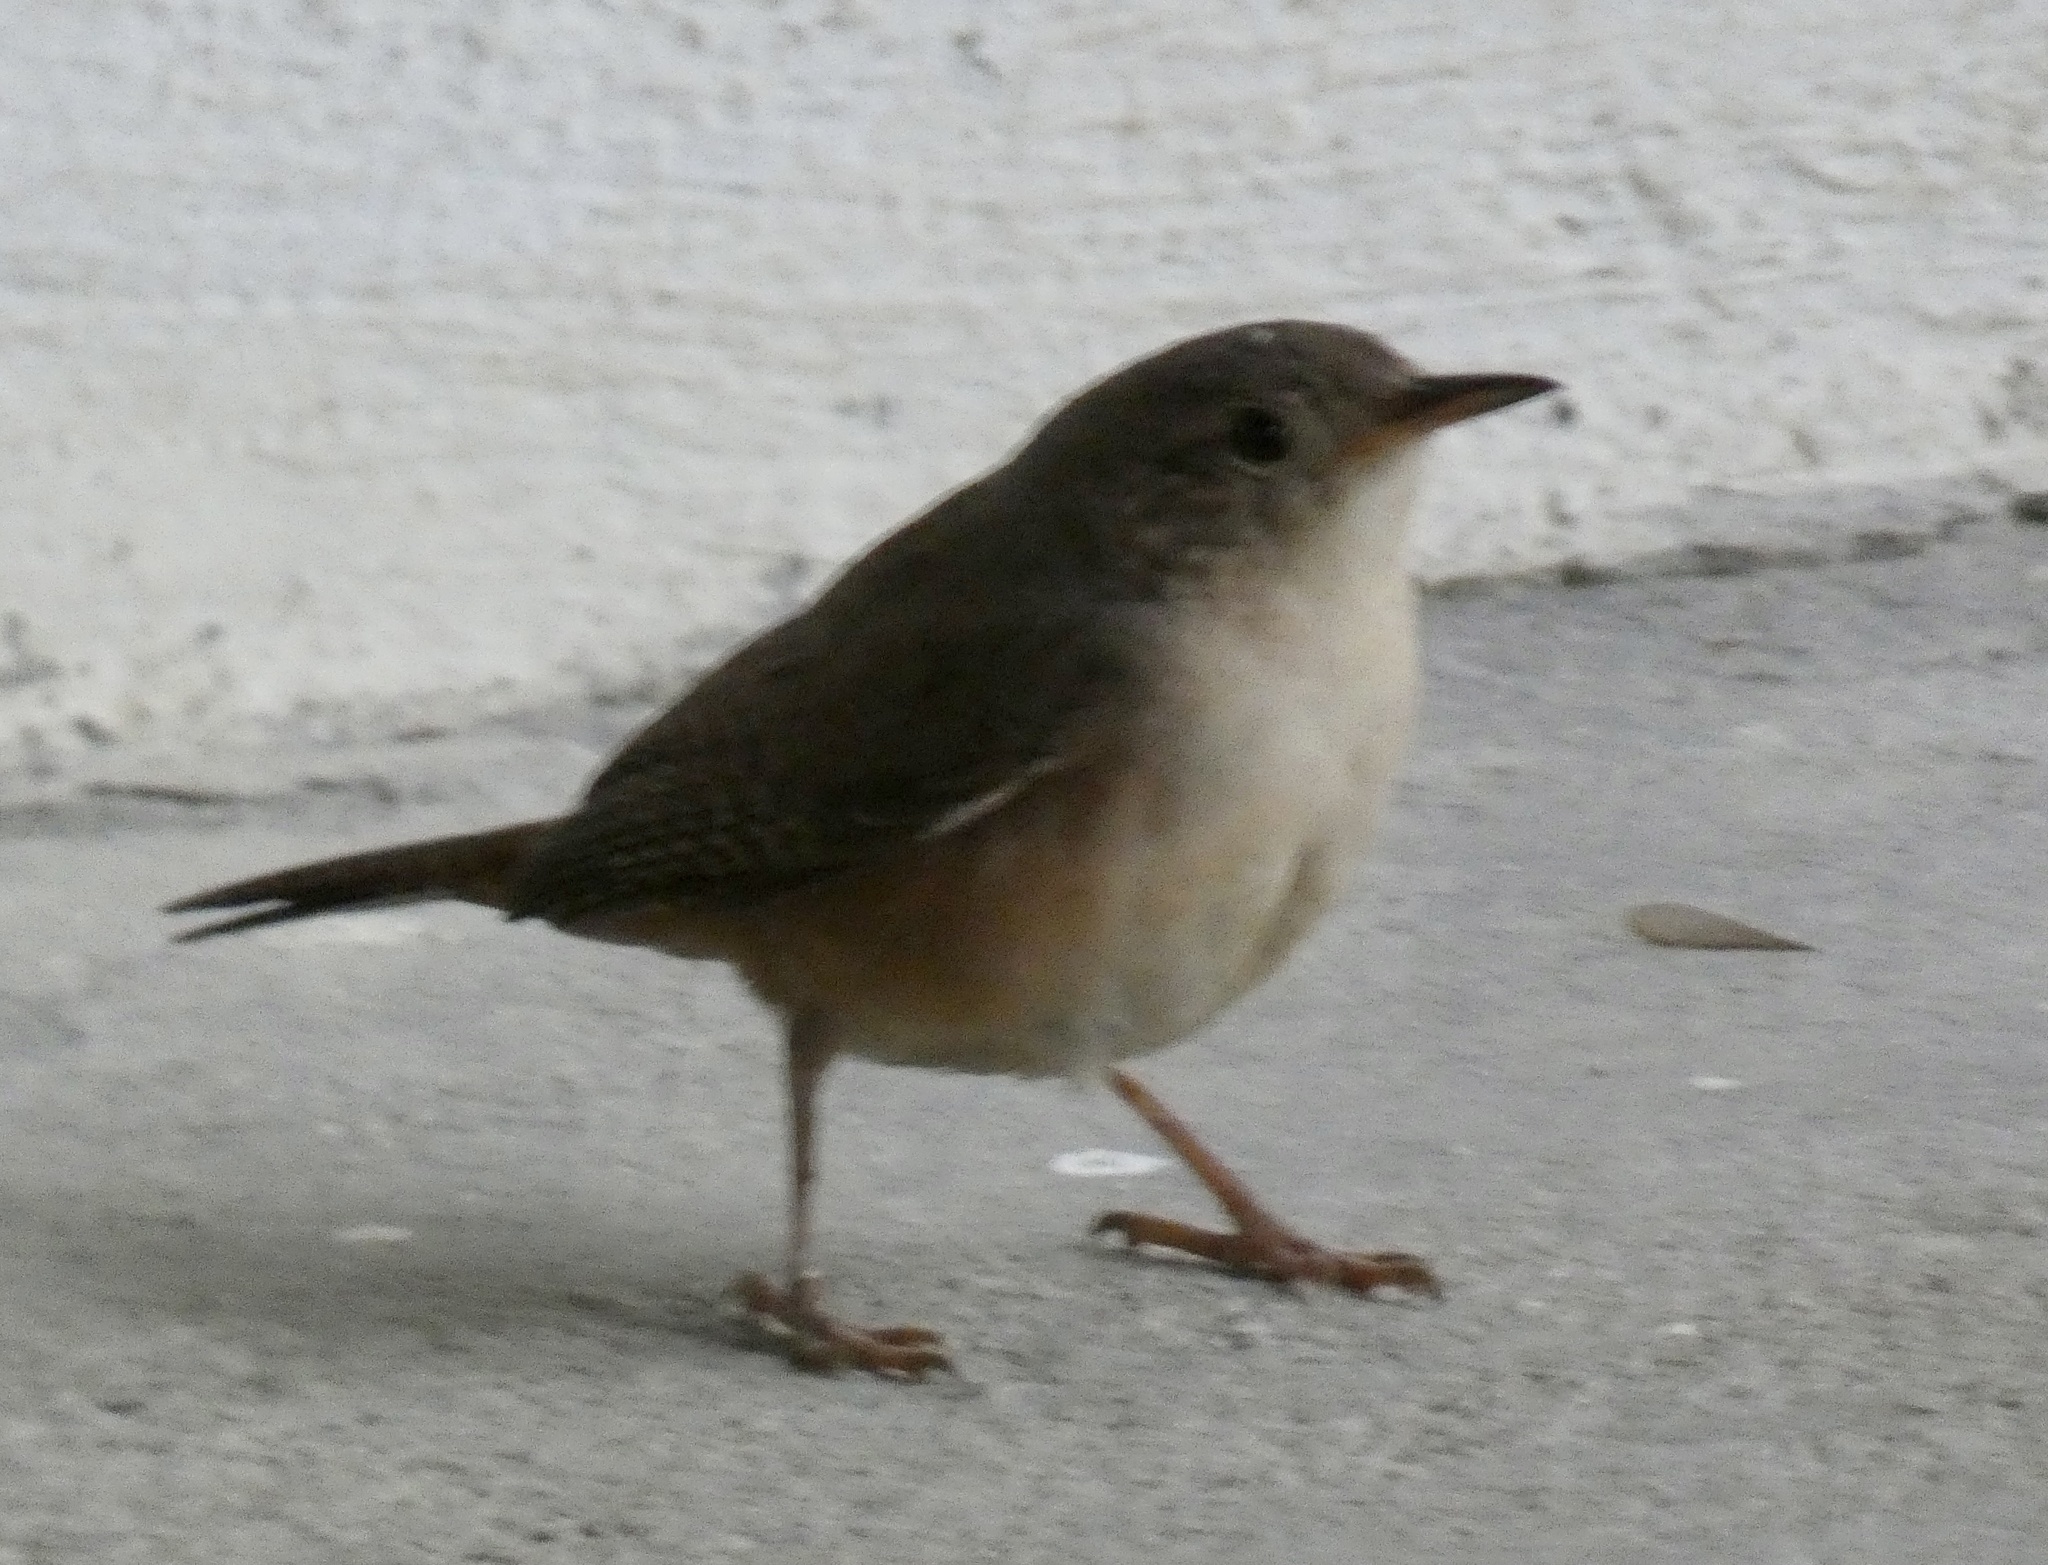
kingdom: Animalia
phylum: Chordata
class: Aves
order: Passeriformes
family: Troglodytidae
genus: Troglodytes
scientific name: Troglodytes aedon
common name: House wren
